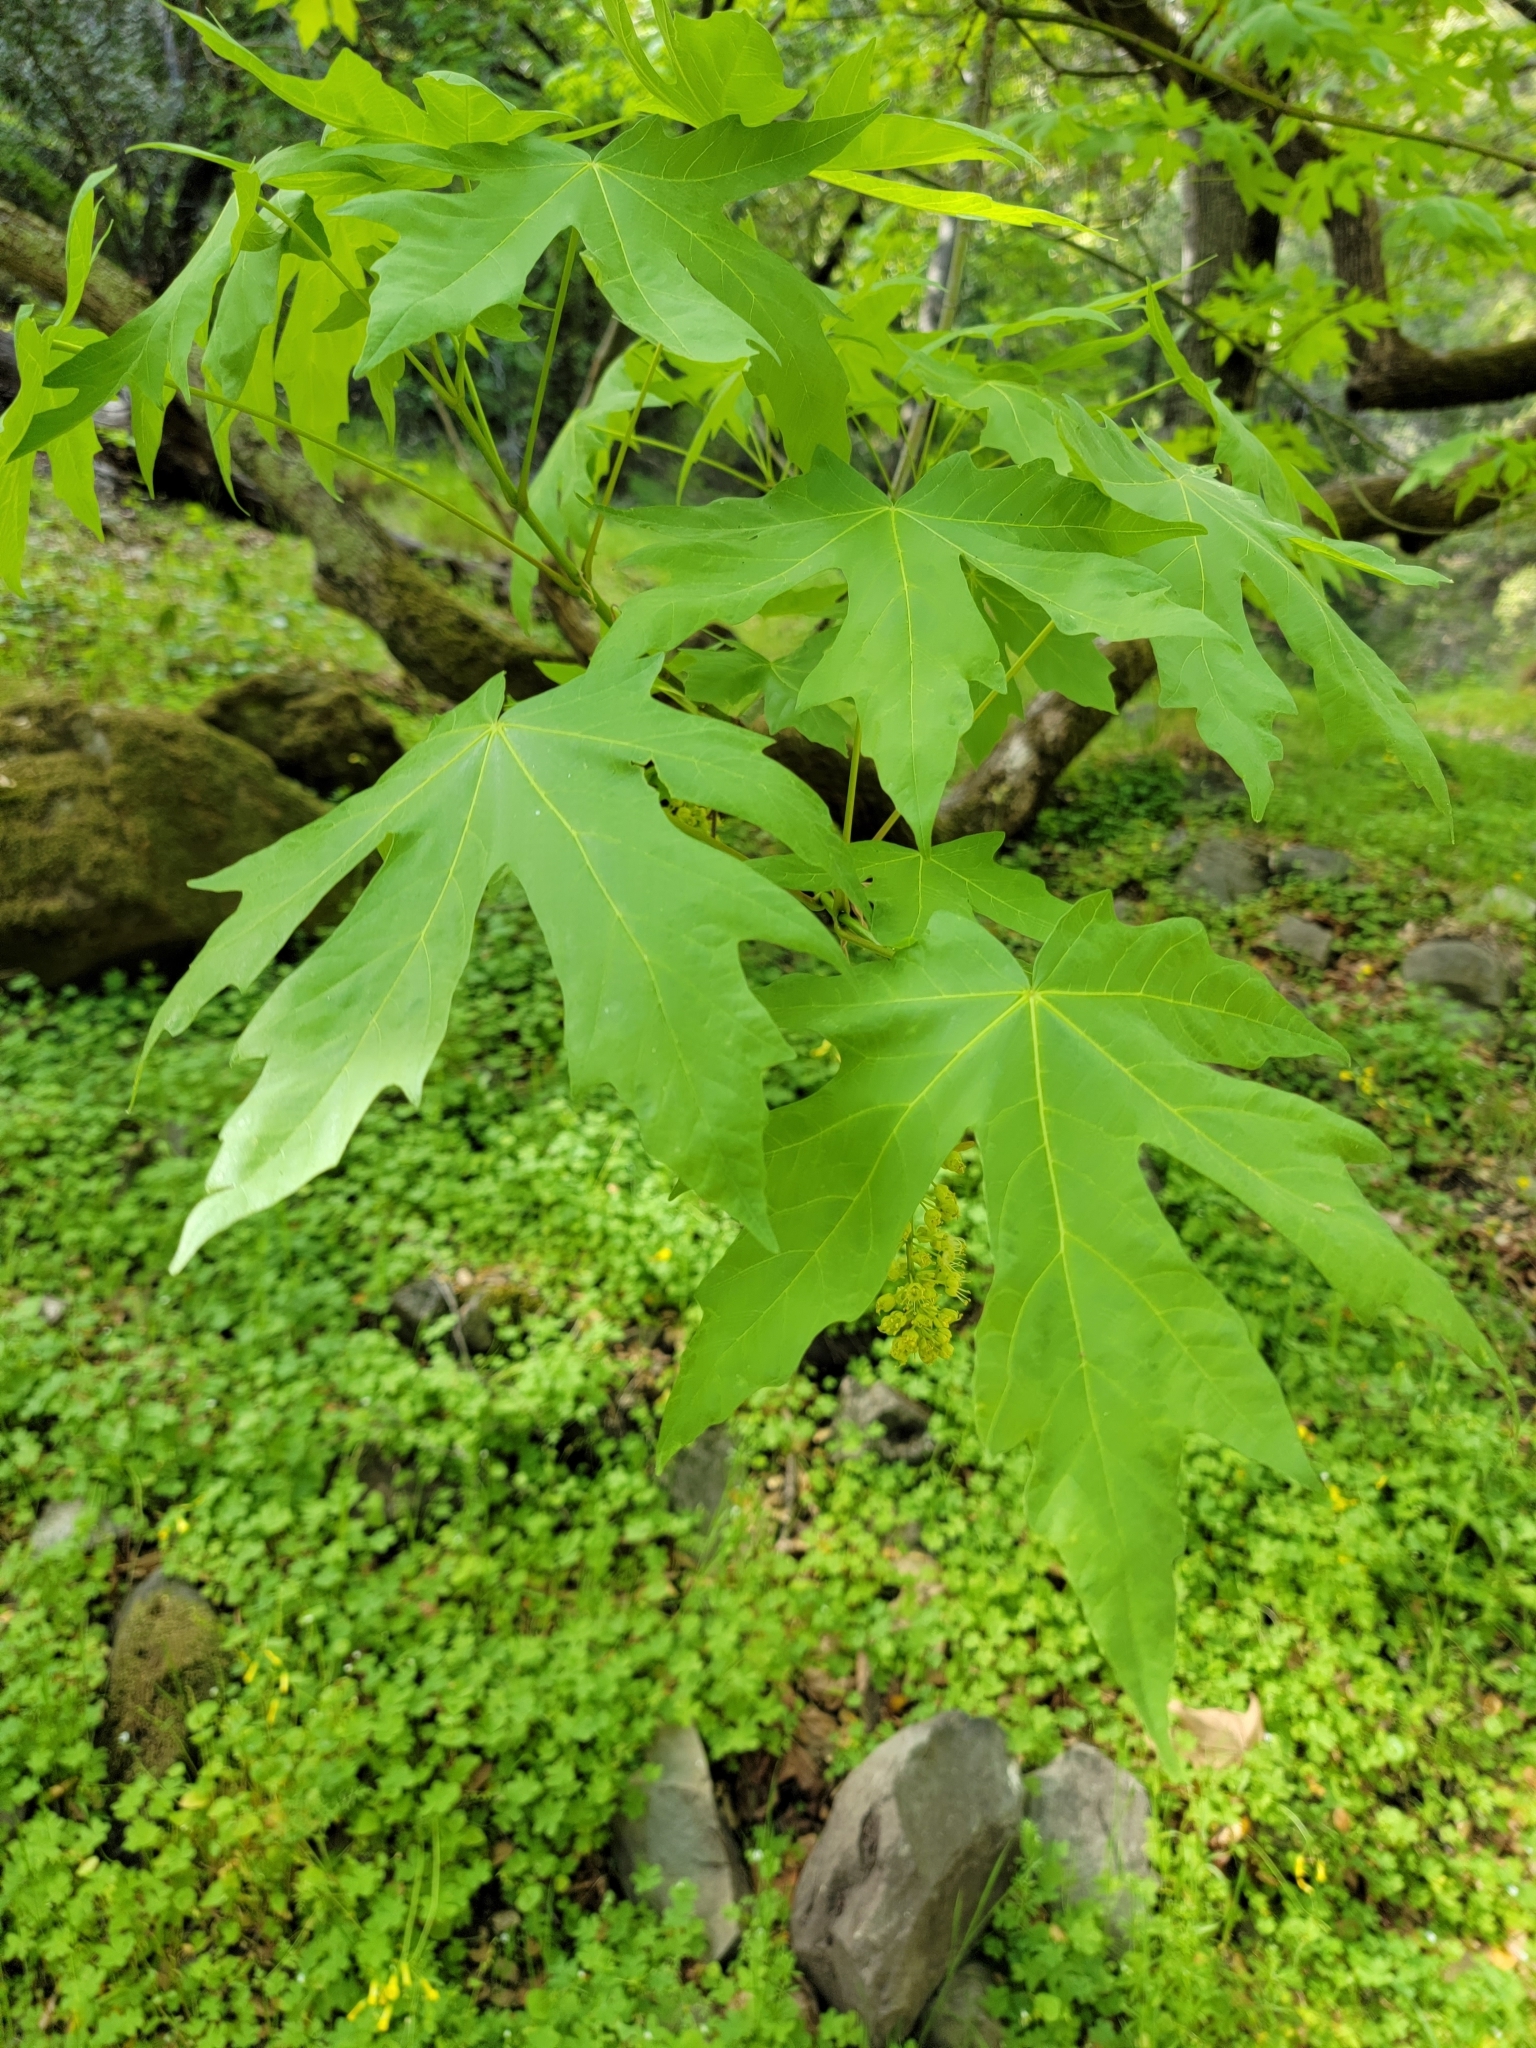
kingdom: Plantae
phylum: Tracheophyta
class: Magnoliopsida
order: Sapindales
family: Sapindaceae
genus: Acer
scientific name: Acer macrophyllum
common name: Oregon maple
